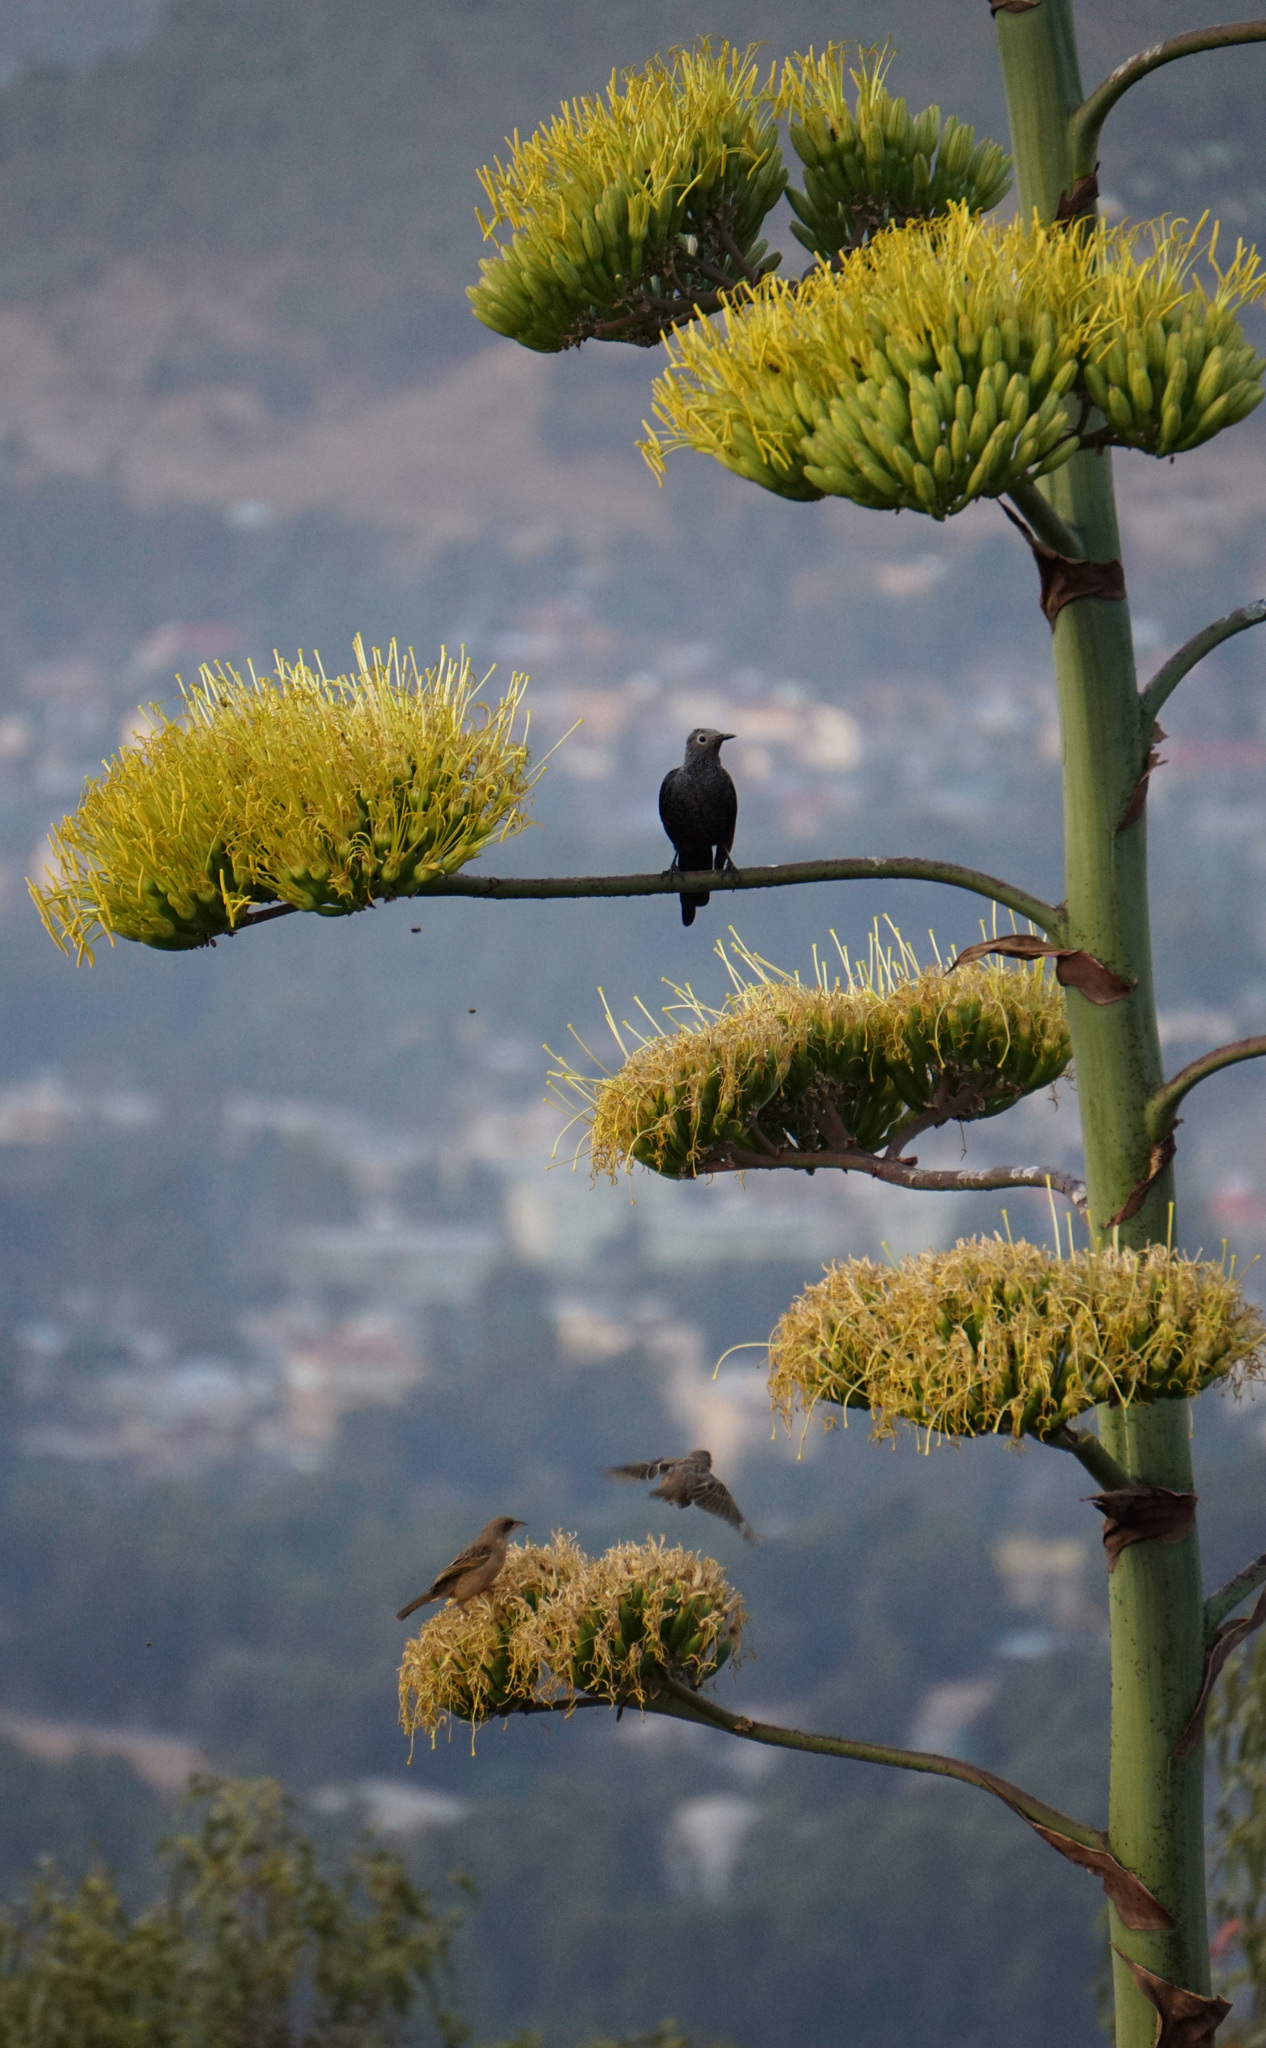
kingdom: Animalia
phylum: Chordata
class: Aves
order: Passeriformes
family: Ploceidae
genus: Ploceus
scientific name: Ploceus baglafecht
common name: Baglafecht weaver
